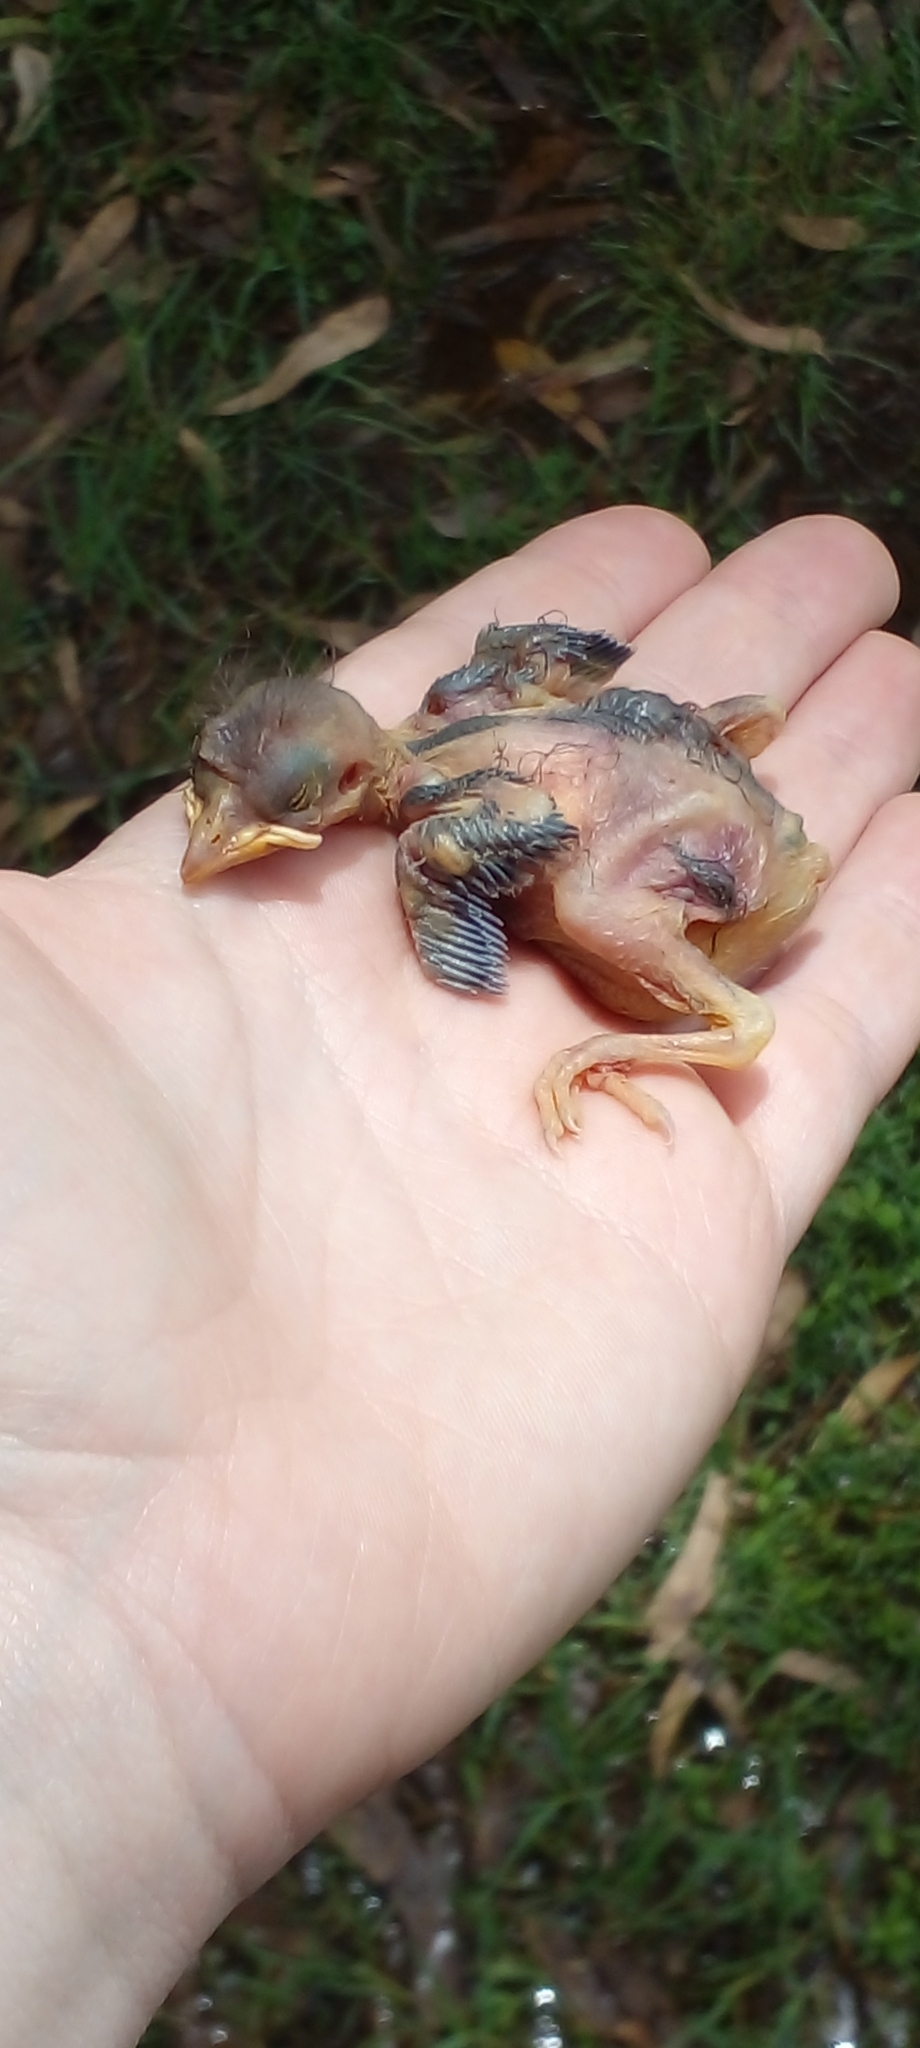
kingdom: Animalia
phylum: Chordata
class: Aves
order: Passeriformes
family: Passeridae
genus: Passer
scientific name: Passer domesticus
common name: House sparrow
